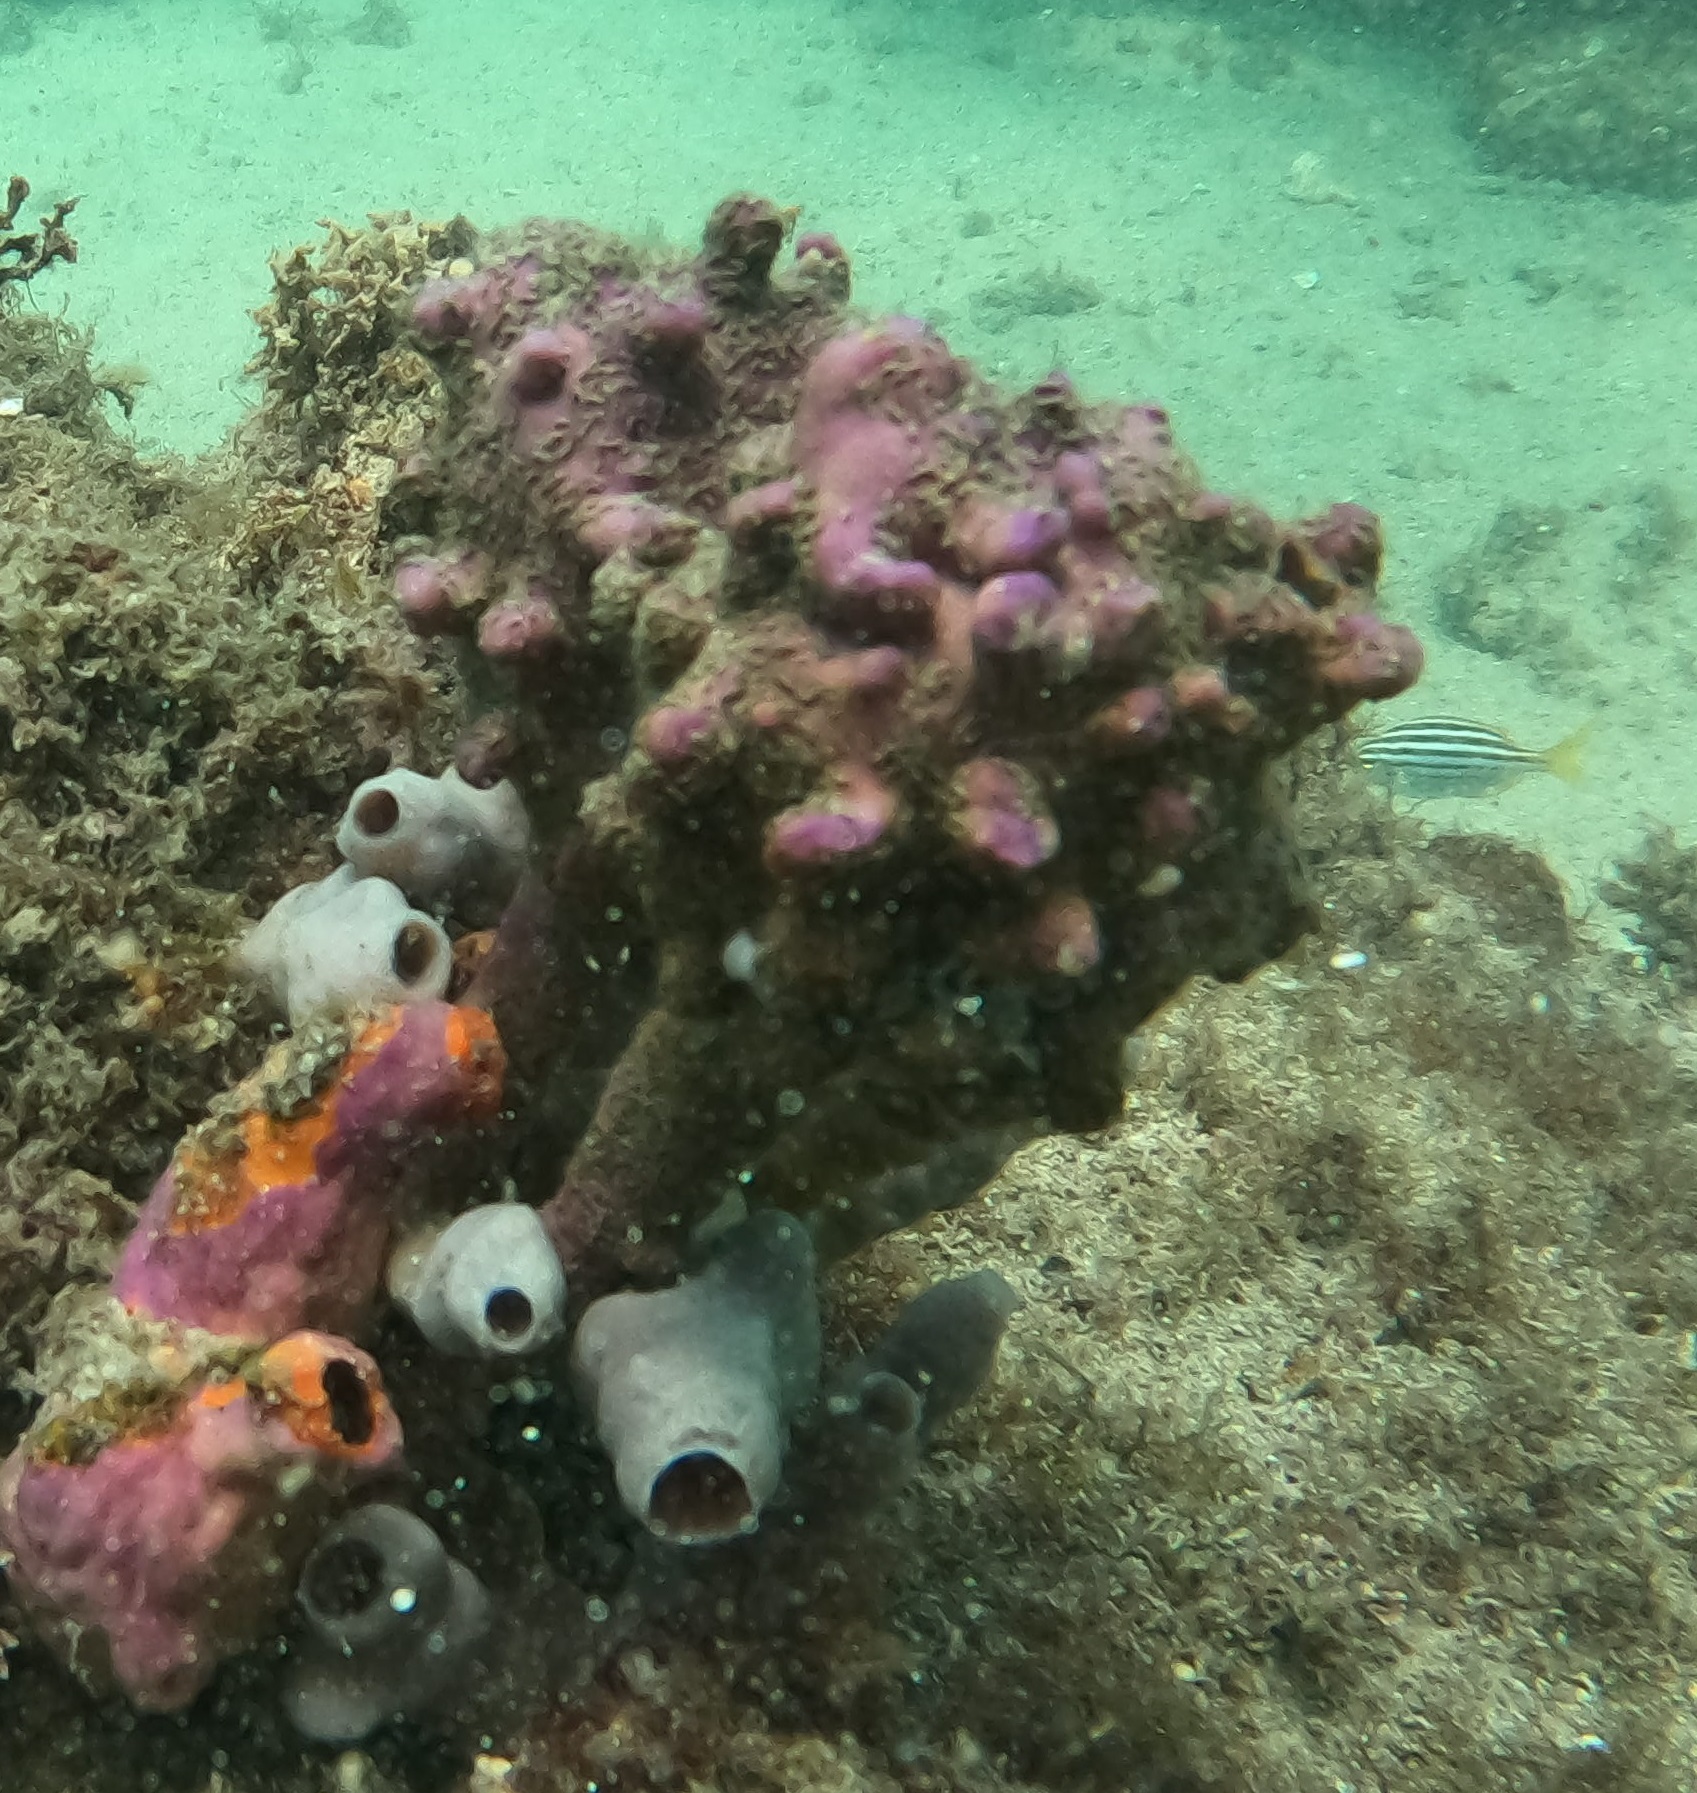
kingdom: Animalia
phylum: Chordata
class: Ascidiacea
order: Stolidobranchia
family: Pyuridae
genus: Pyura
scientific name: Pyura spinifera
